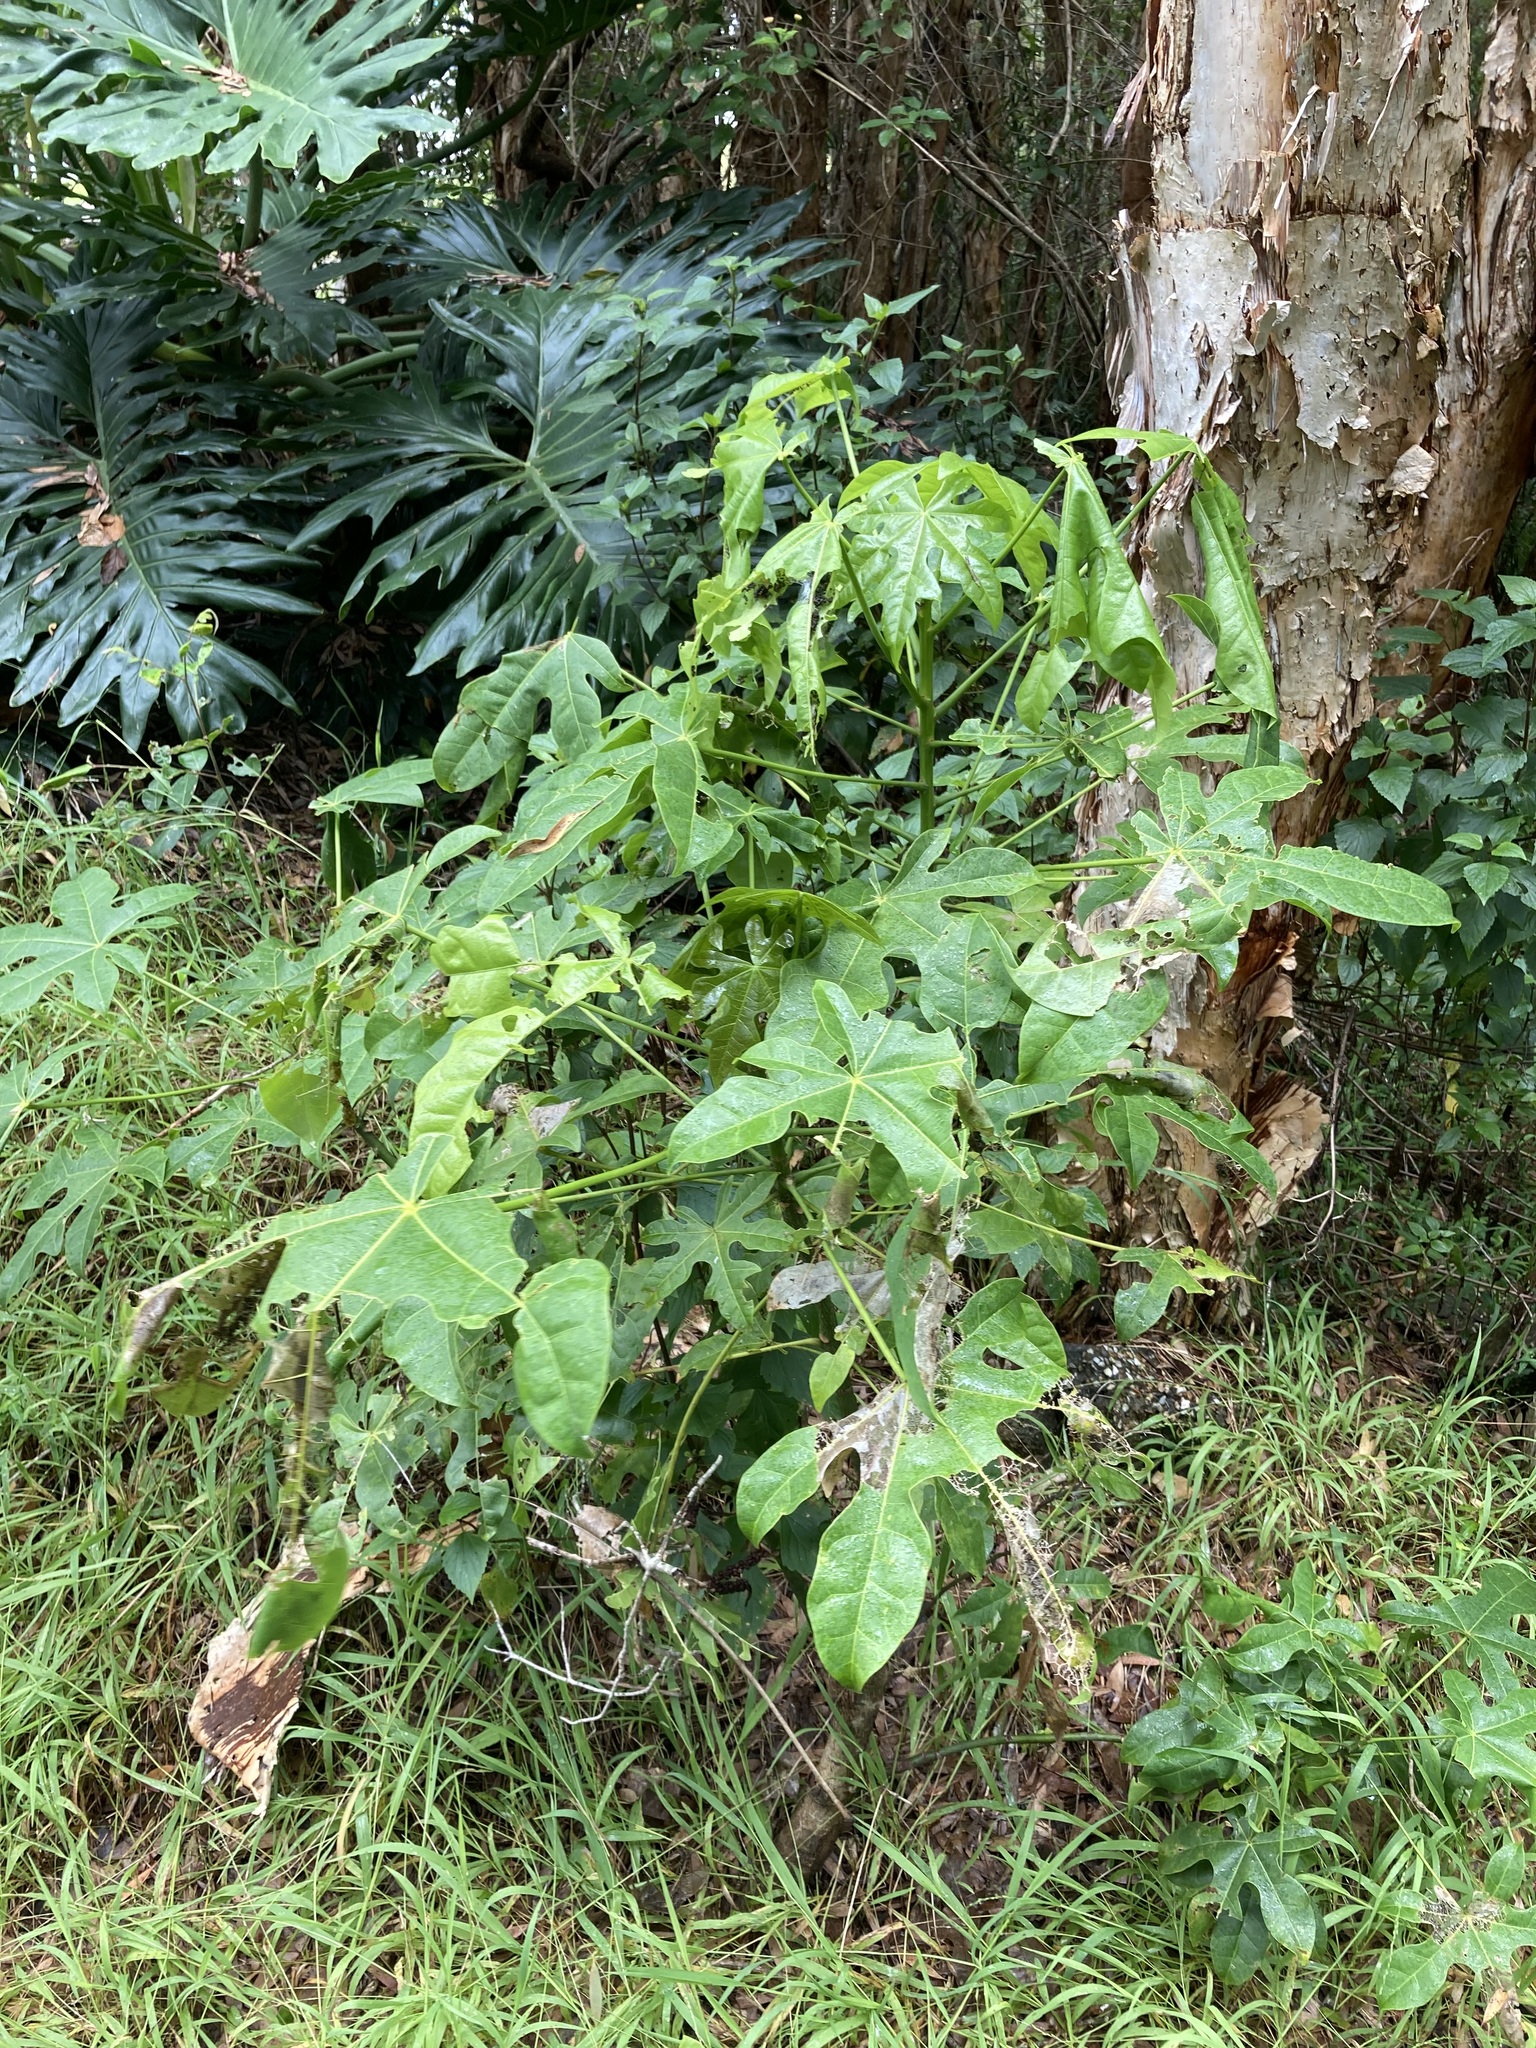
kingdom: Plantae
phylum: Tracheophyta
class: Magnoliopsida
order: Malvales
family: Malvaceae
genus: Brachychiton
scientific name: Brachychiton acerifolius
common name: Illawarra flame tree
